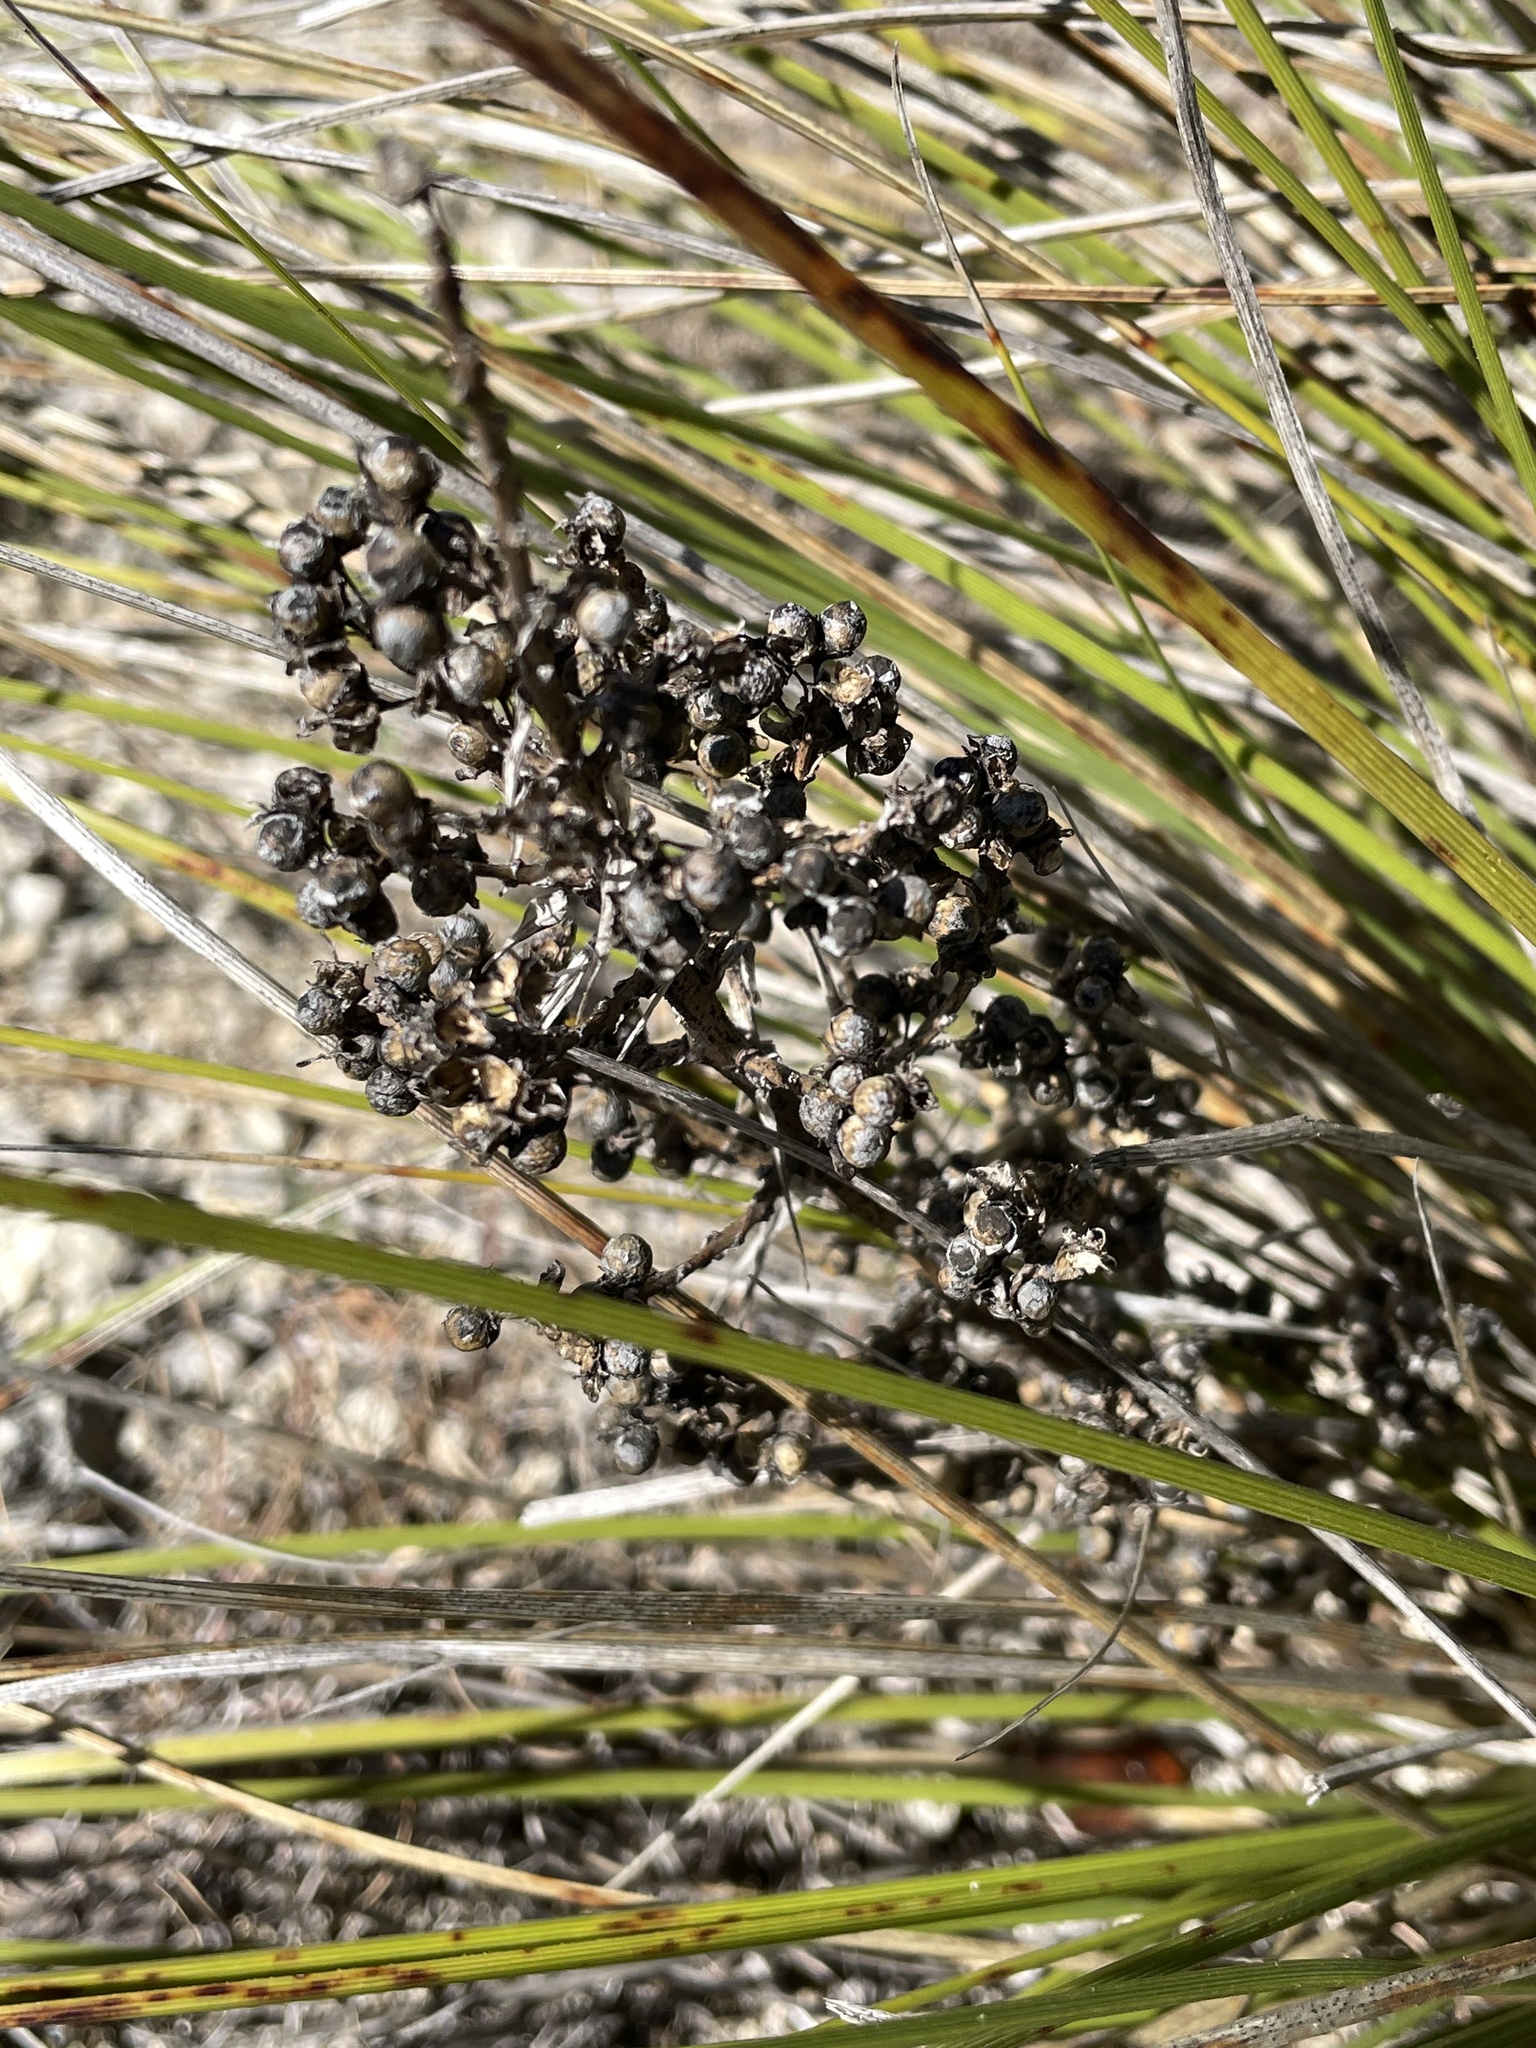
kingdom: Plantae
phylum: Tracheophyta
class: Liliopsida
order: Asparagales
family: Asparagaceae
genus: Nolina
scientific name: Nolina texana
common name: Texas sacahuiste
